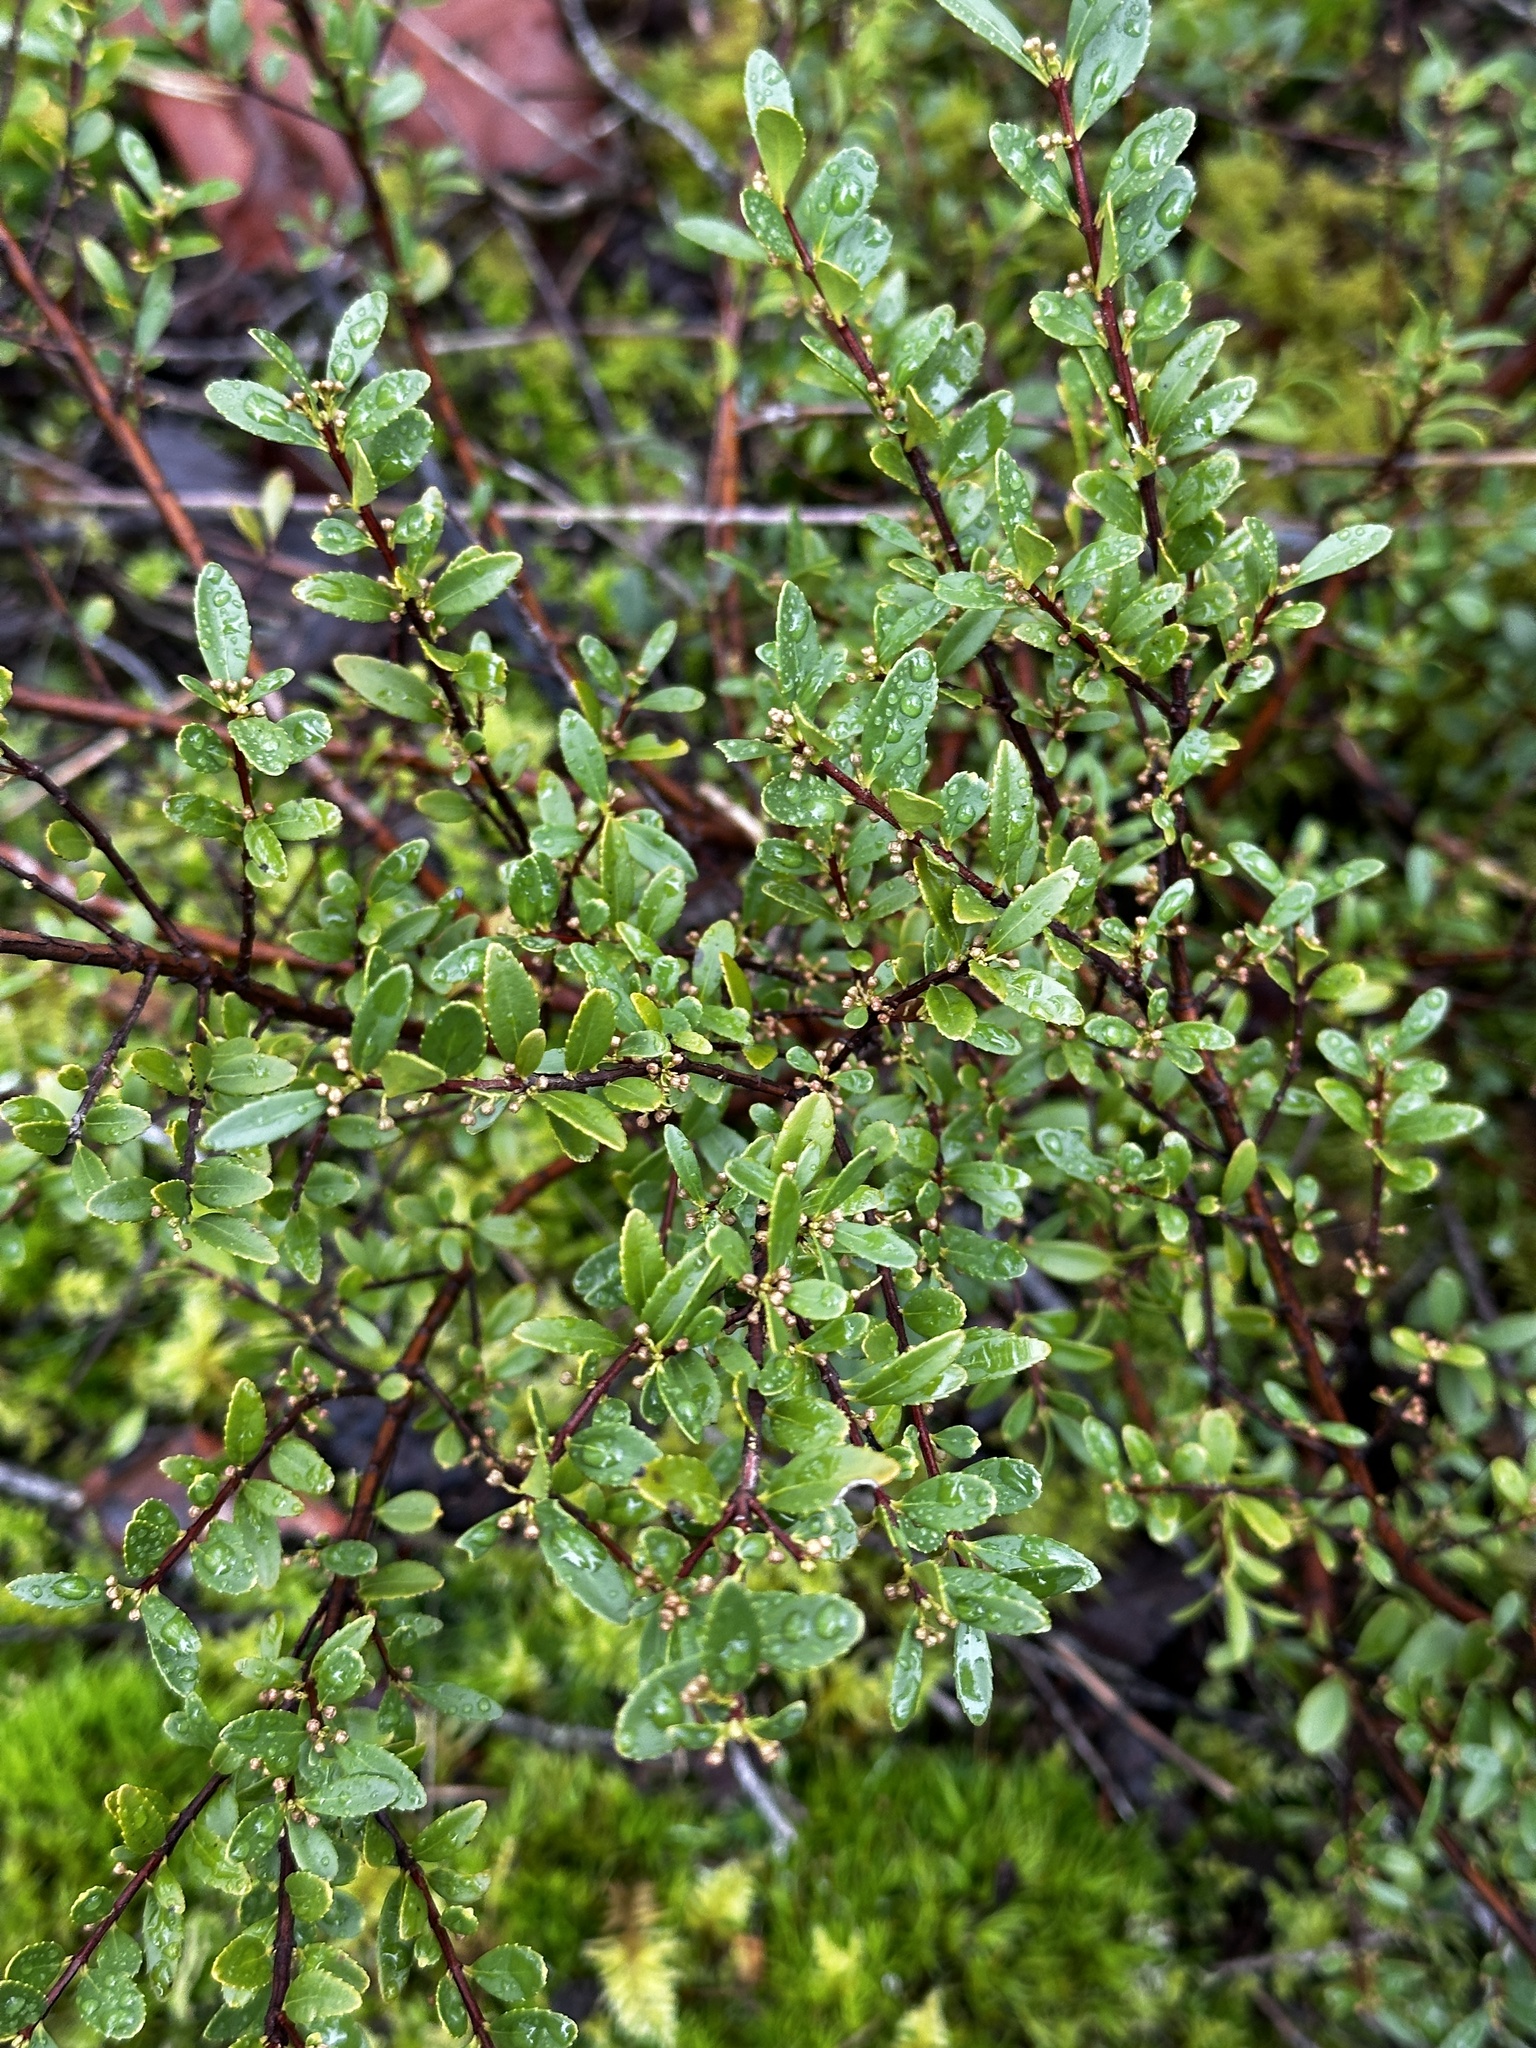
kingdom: Plantae
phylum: Tracheophyta
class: Magnoliopsida
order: Celastrales
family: Celastraceae
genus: Paxistima
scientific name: Paxistima myrsinites
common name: Mountain-lover
